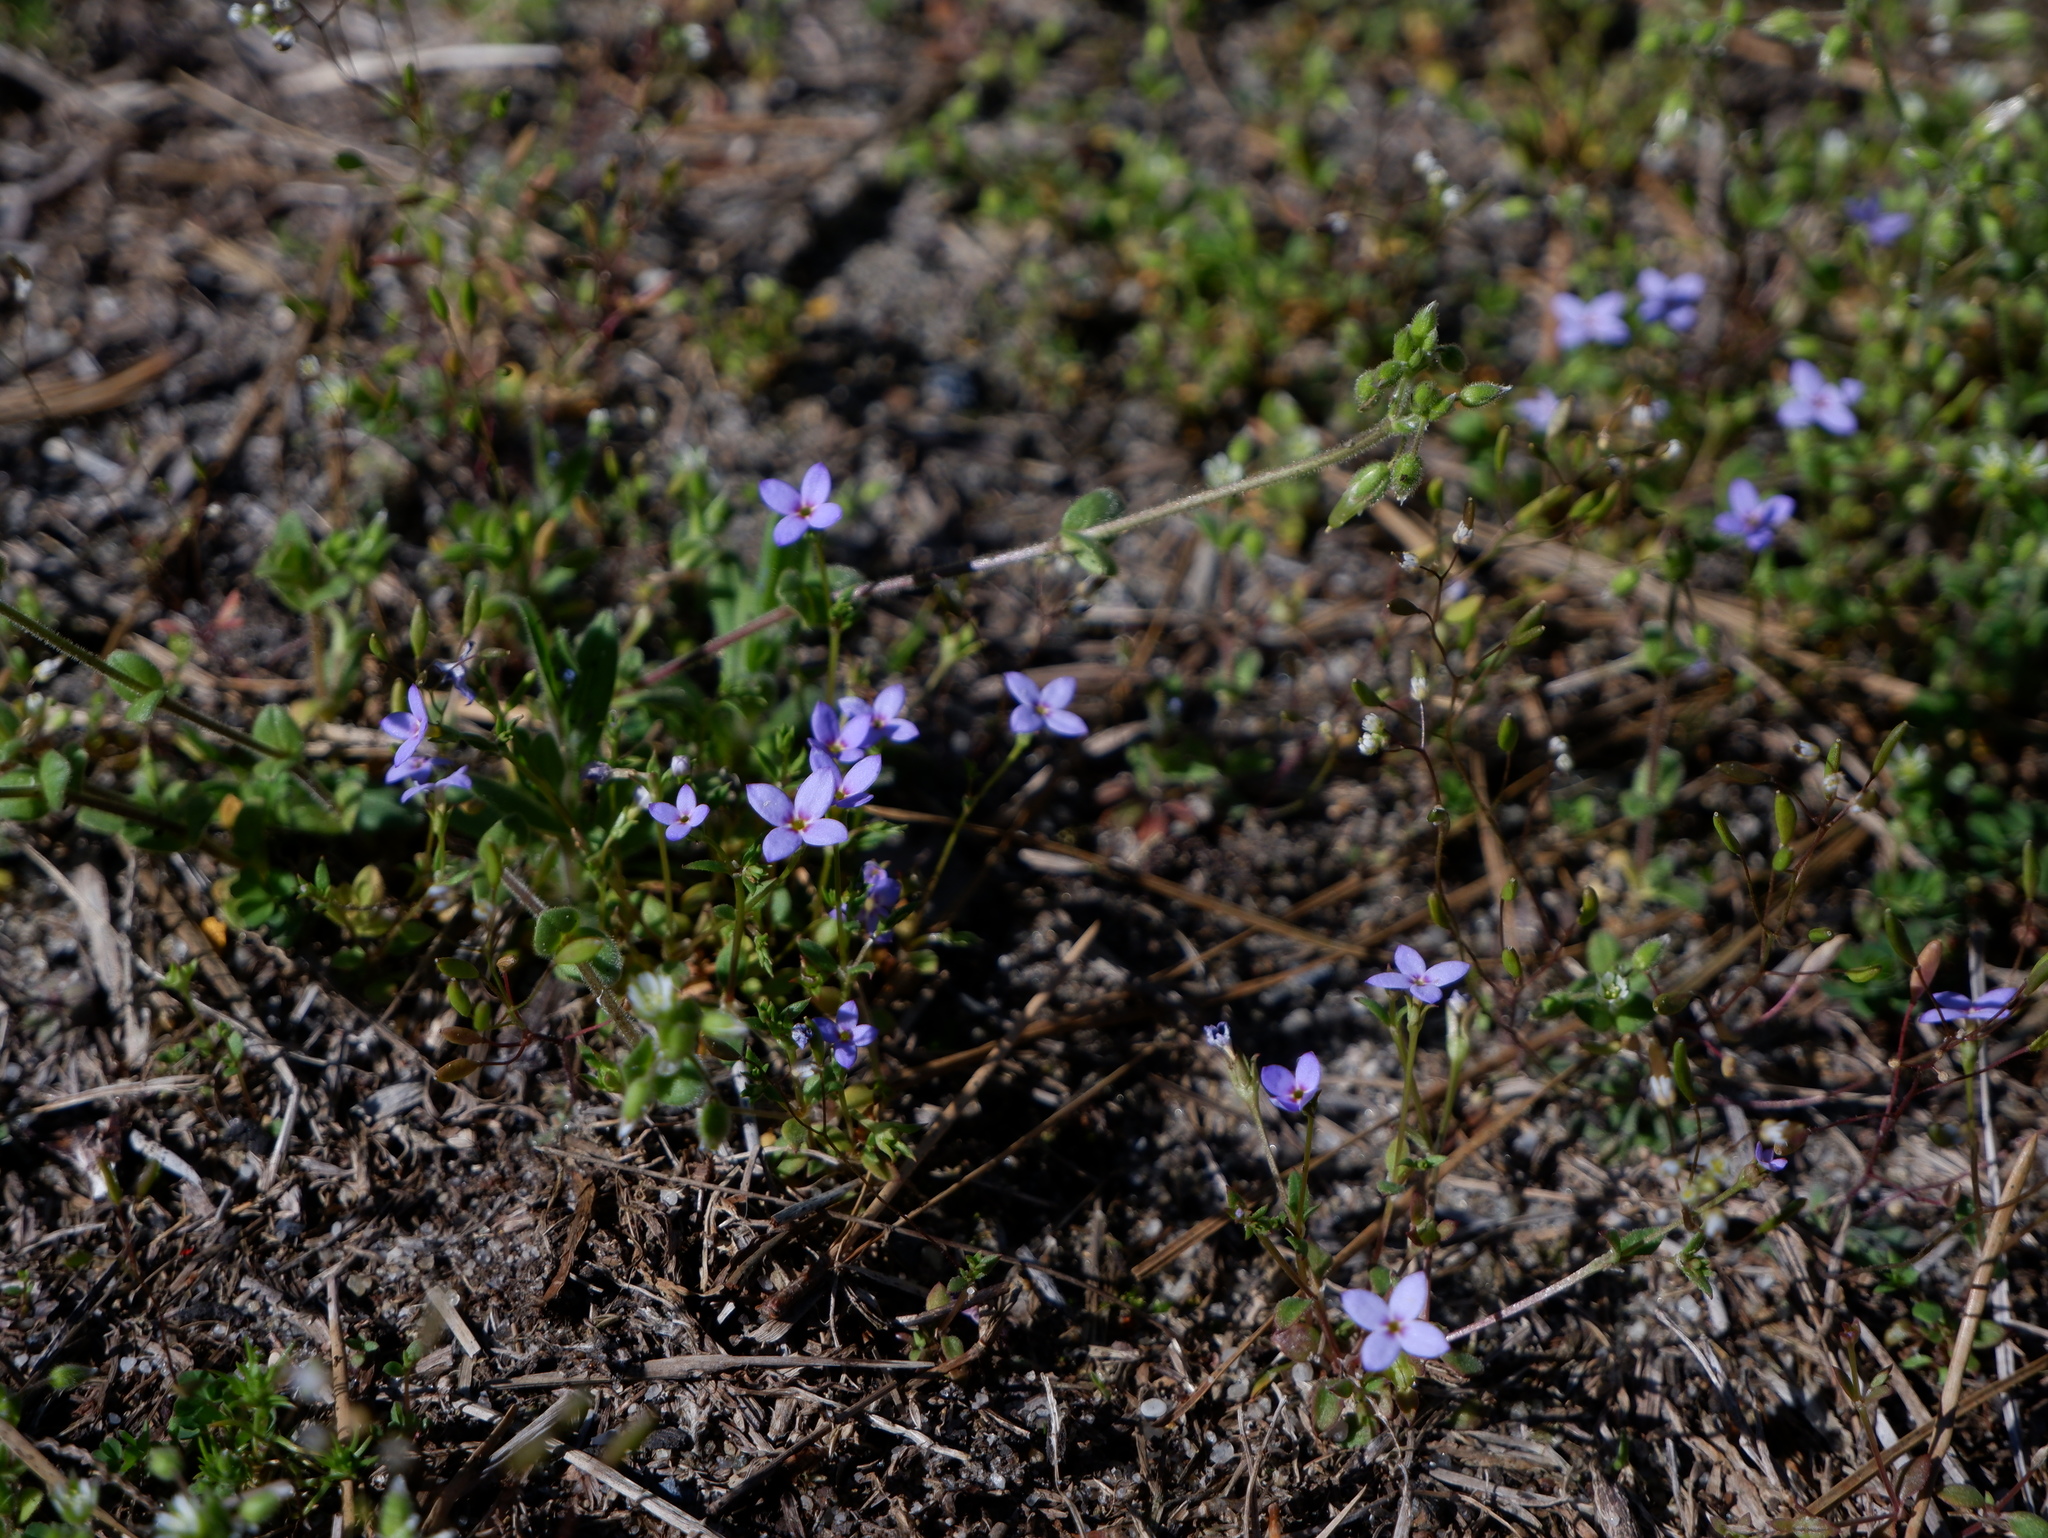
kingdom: Plantae
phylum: Tracheophyta
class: Magnoliopsida
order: Gentianales
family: Rubiaceae
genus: Houstonia
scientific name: Houstonia pusilla
